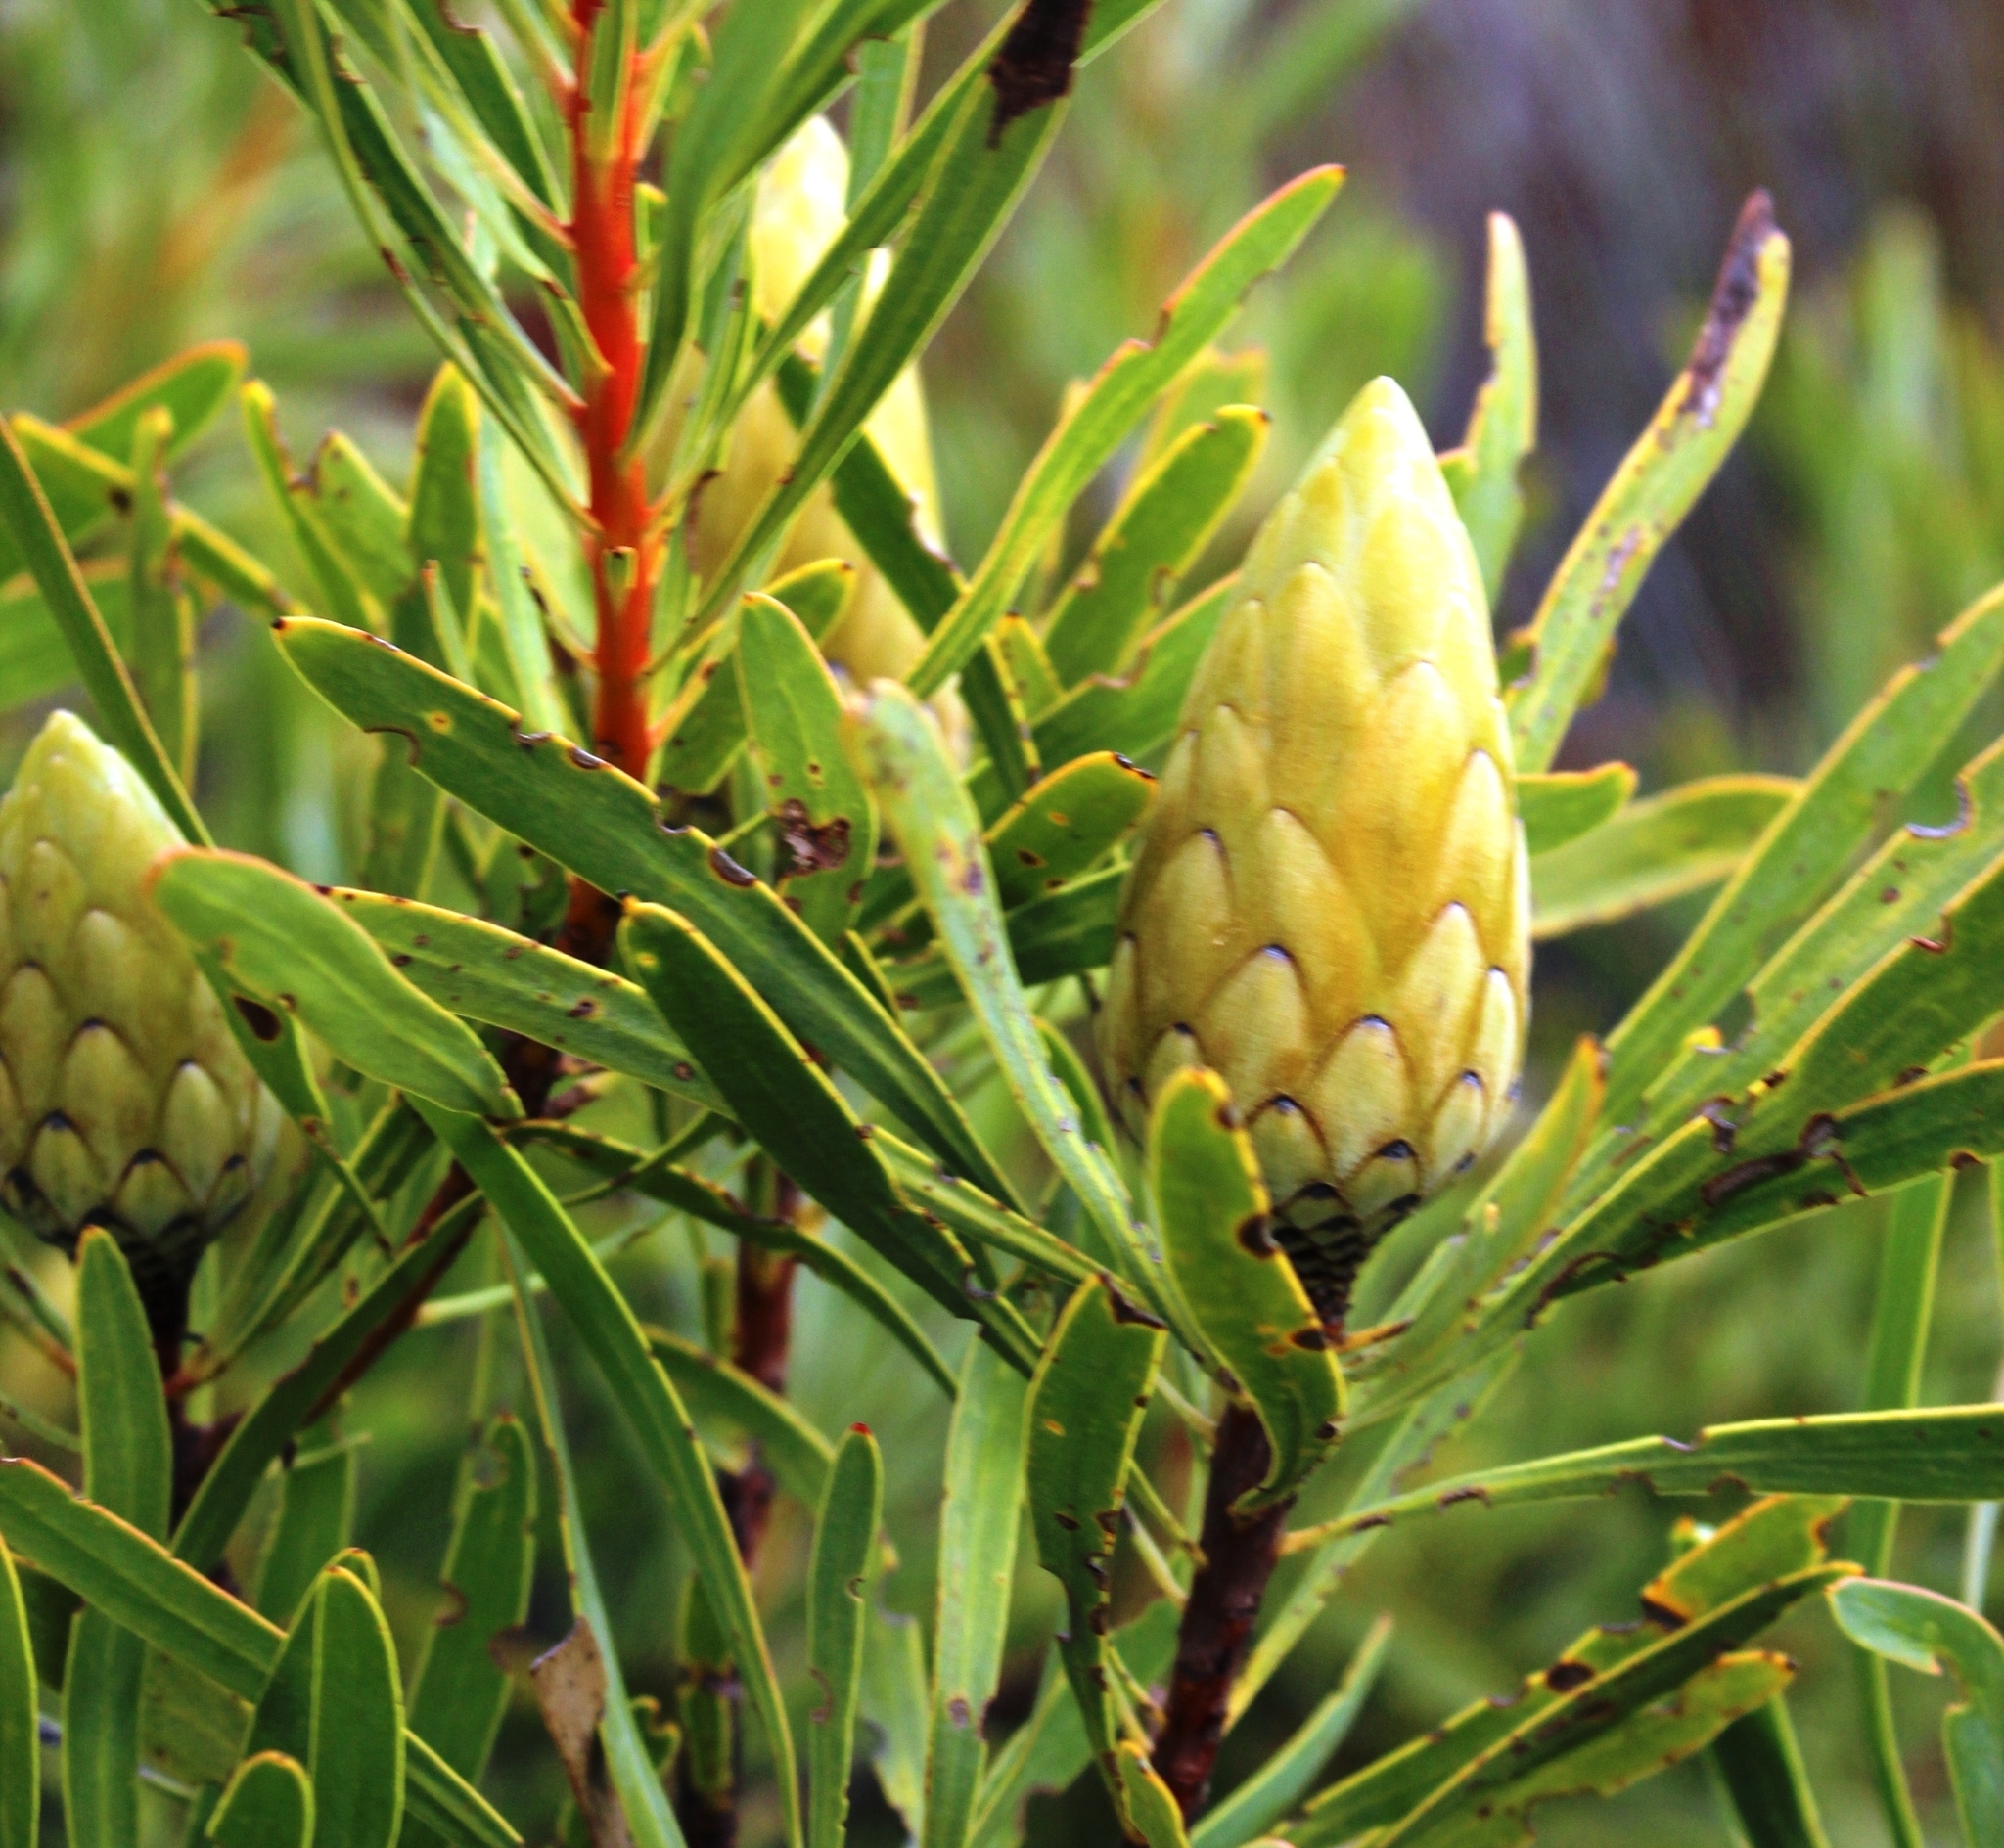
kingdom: Plantae
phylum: Tracheophyta
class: Magnoliopsida
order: Proteales
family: Proteaceae
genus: Protea
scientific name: Protea repens
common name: Sugarbush
